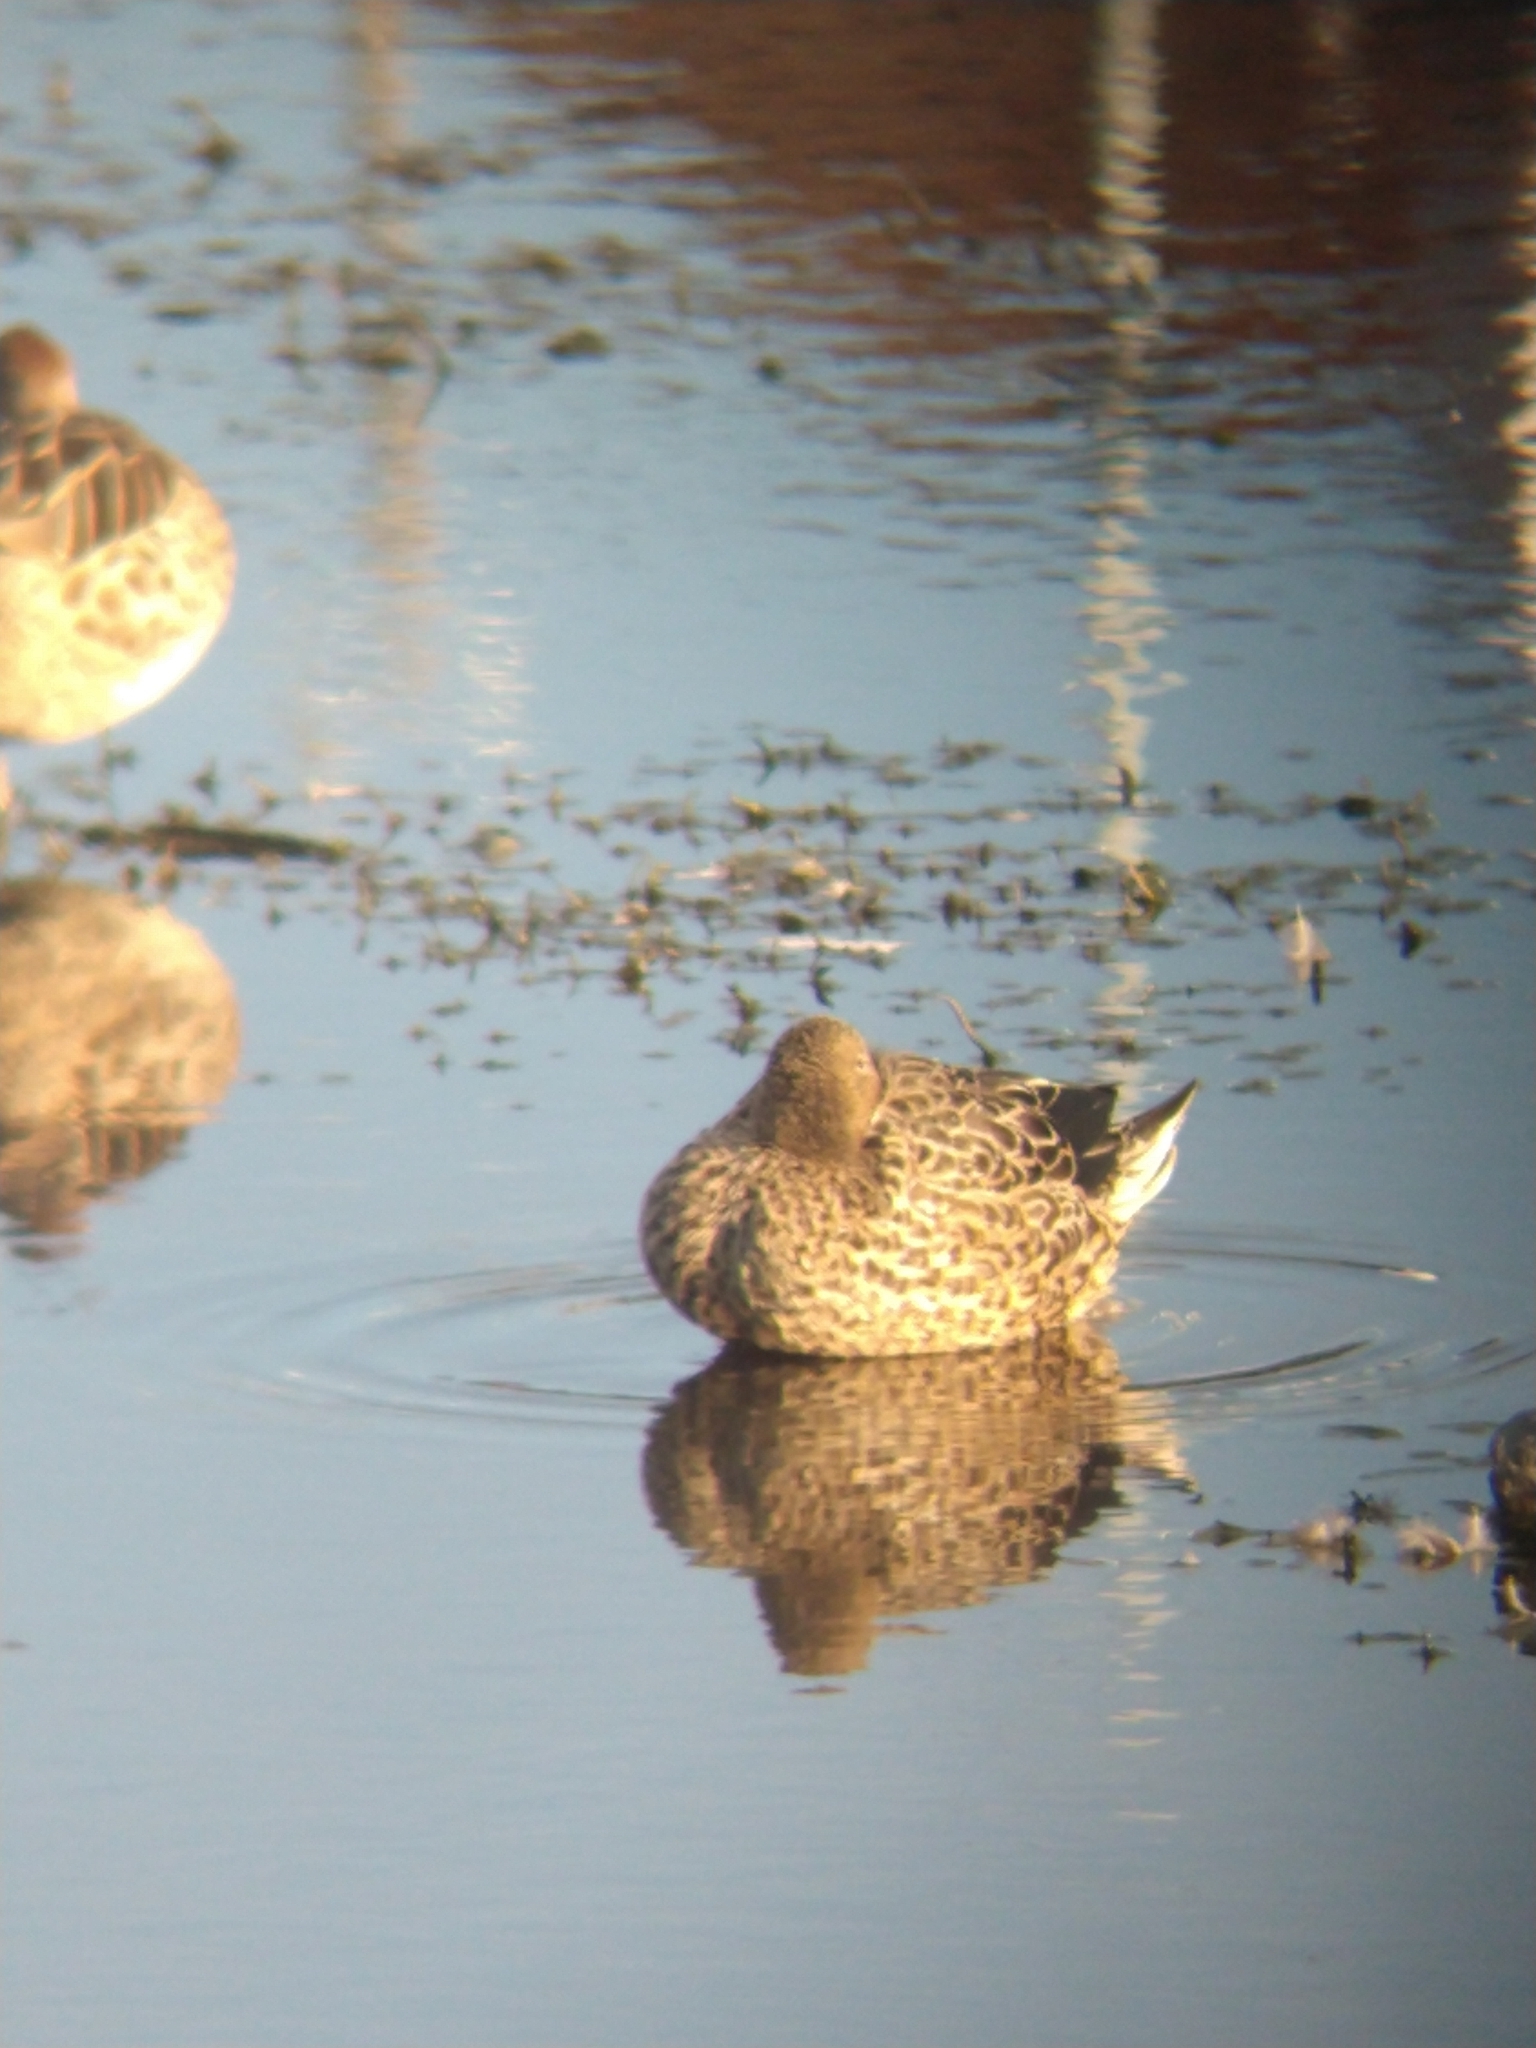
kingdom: Animalia
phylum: Chordata
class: Aves
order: Anseriformes
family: Anatidae
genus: Anas
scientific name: Anas georgica
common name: Yellow-billed pintail
